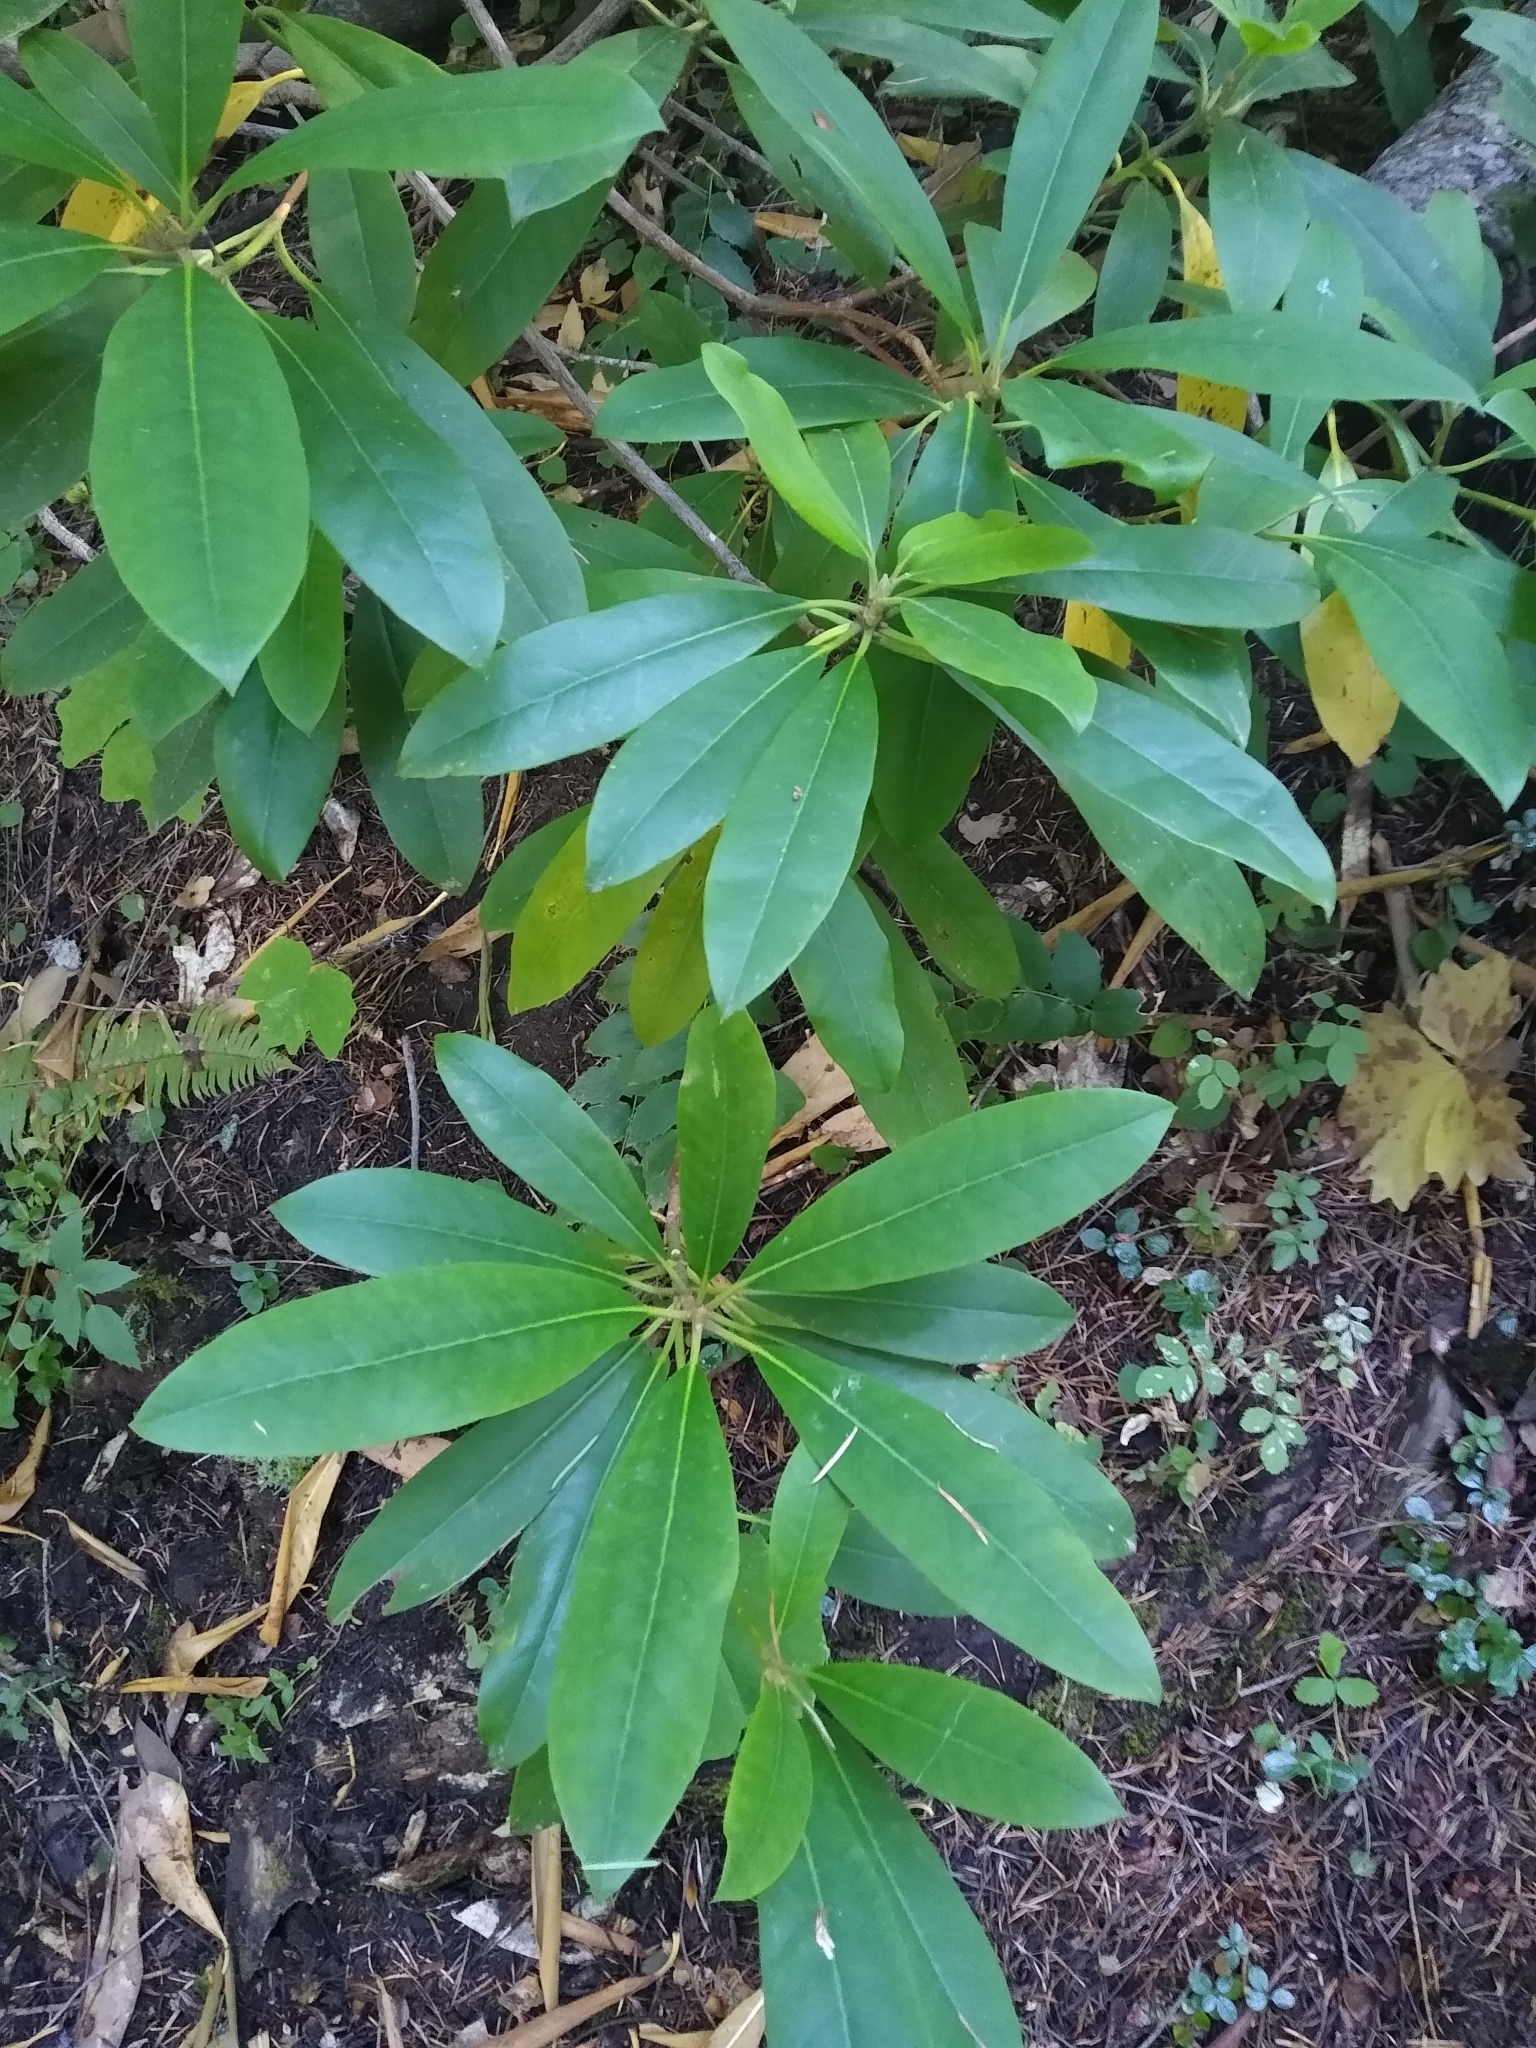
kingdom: Plantae
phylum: Tracheophyta
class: Magnoliopsida
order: Ericales
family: Ericaceae
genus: Rhododendron
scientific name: Rhododendron macrophyllum
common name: California rose bay
